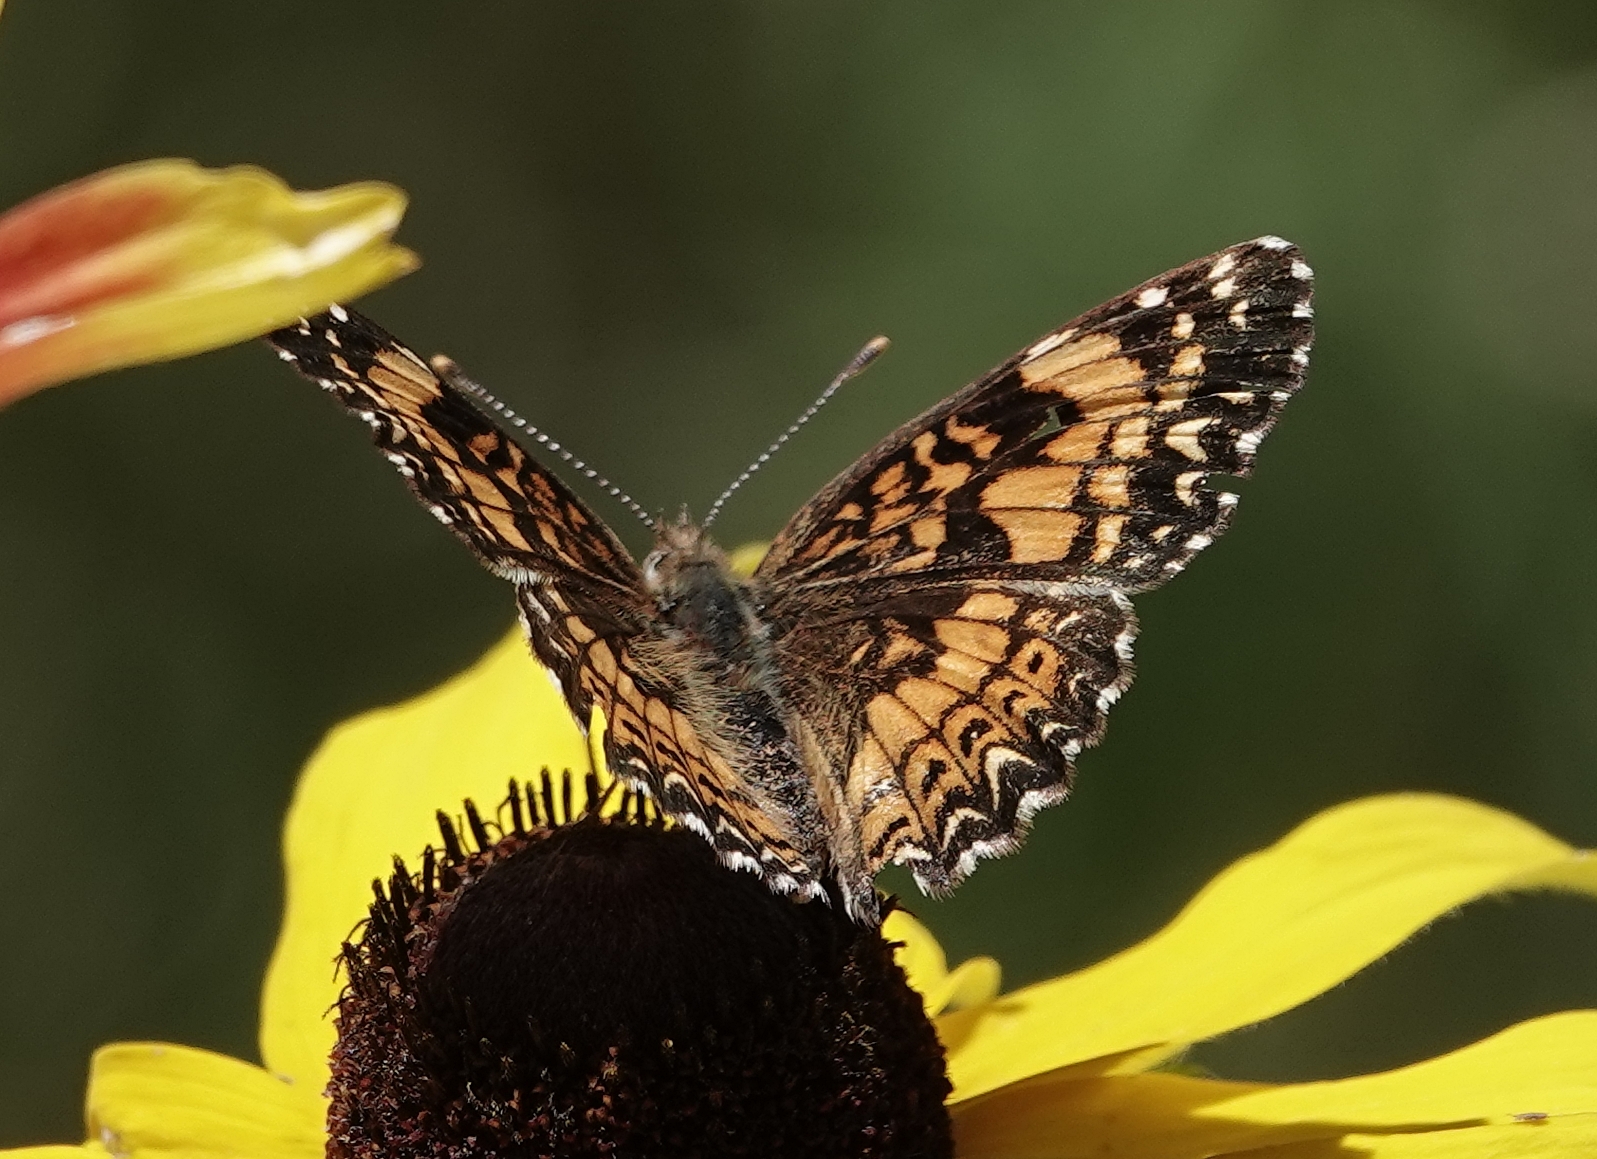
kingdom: Animalia
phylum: Arthropoda
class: Insecta
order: Lepidoptera
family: Nymphalidae
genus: Chlosyne
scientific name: Chlosyne gorgone
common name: Gorgone checkerspot
